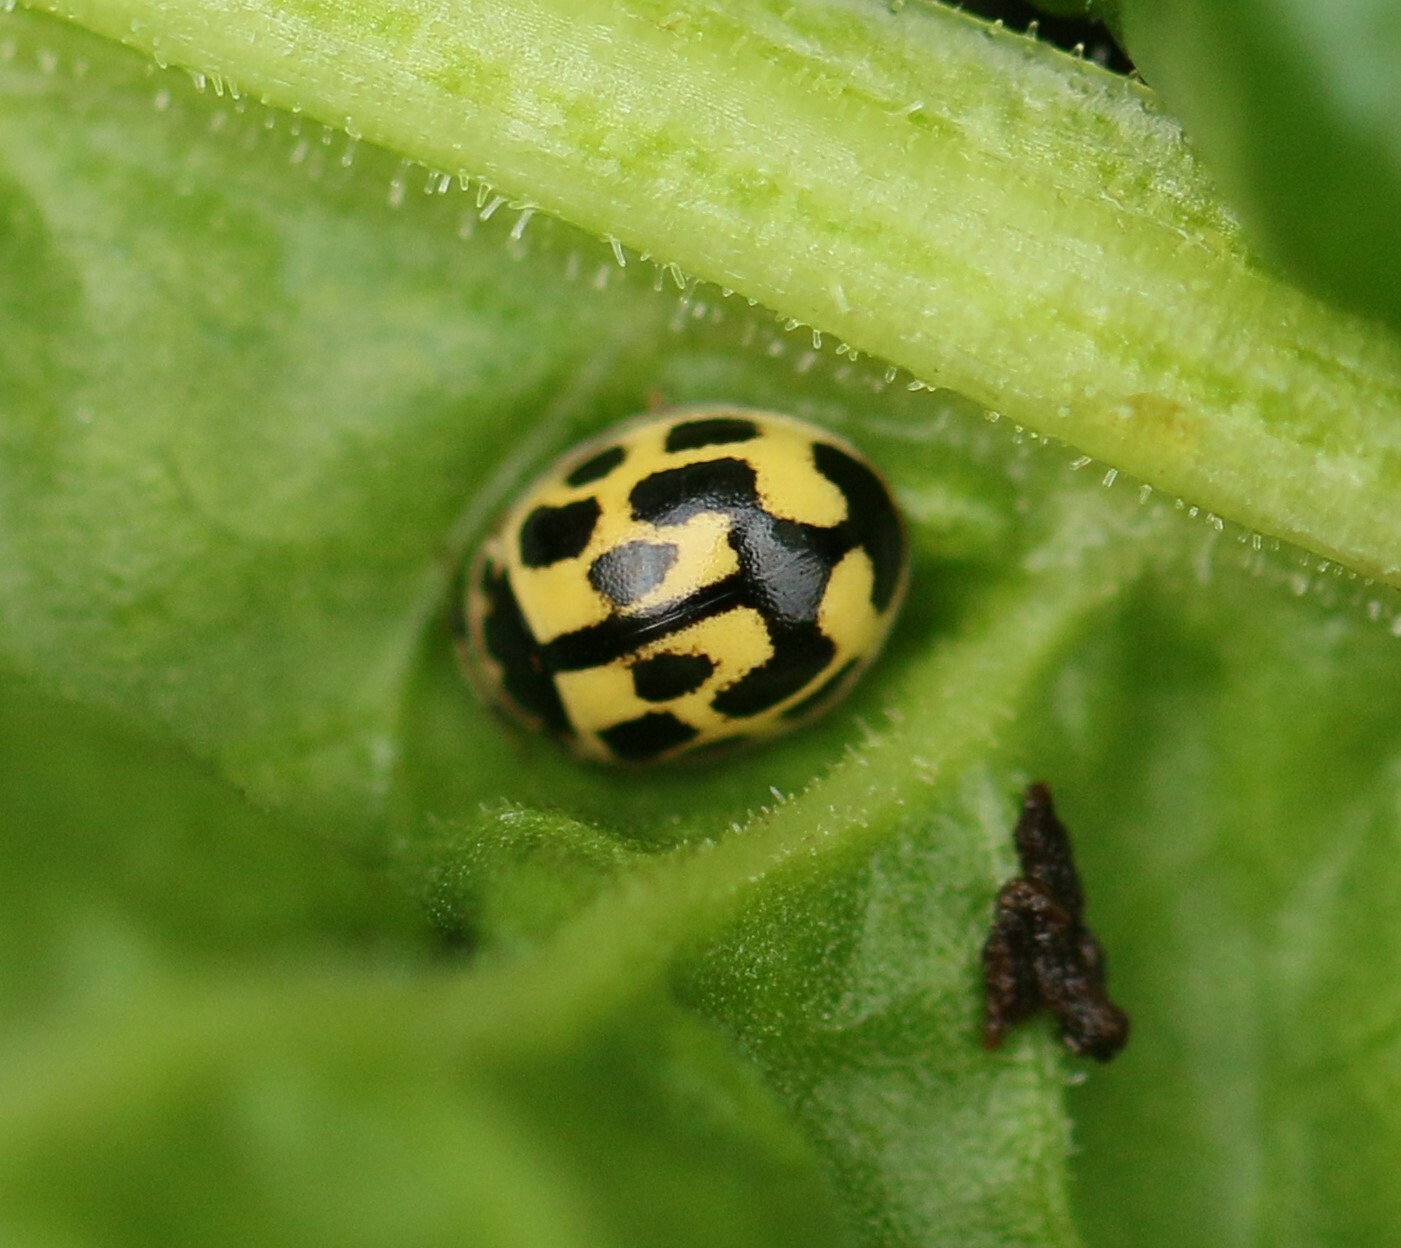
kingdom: Animalia
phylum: Arthropoda
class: Insecta
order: Coleoptera
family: Coccinellidae
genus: Propylaea
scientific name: Propylaea quatuordecimpunctata
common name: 14-spotted ladybird beetle
